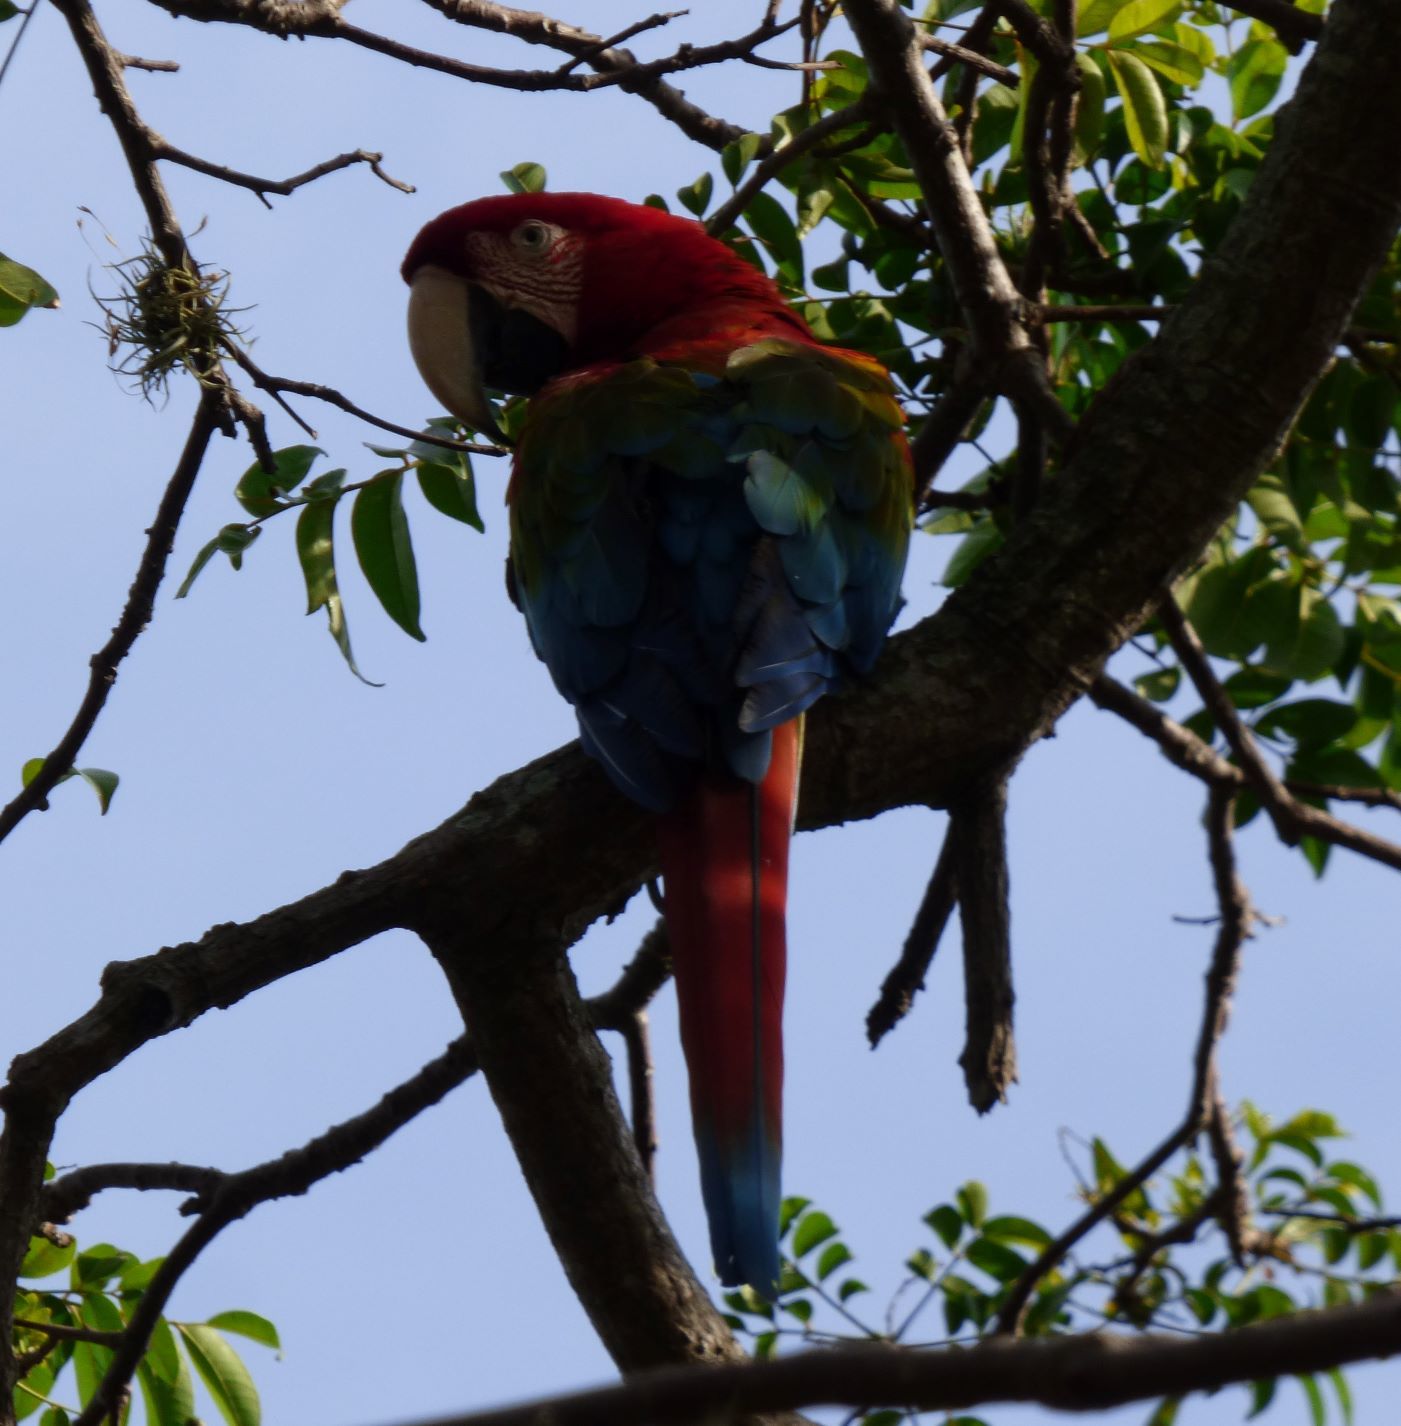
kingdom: Animalia
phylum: Chordata
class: Aves
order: Psittaciformes
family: Psittacidae
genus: Ara
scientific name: Ara chloropterus
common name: Red-and-green macaw
